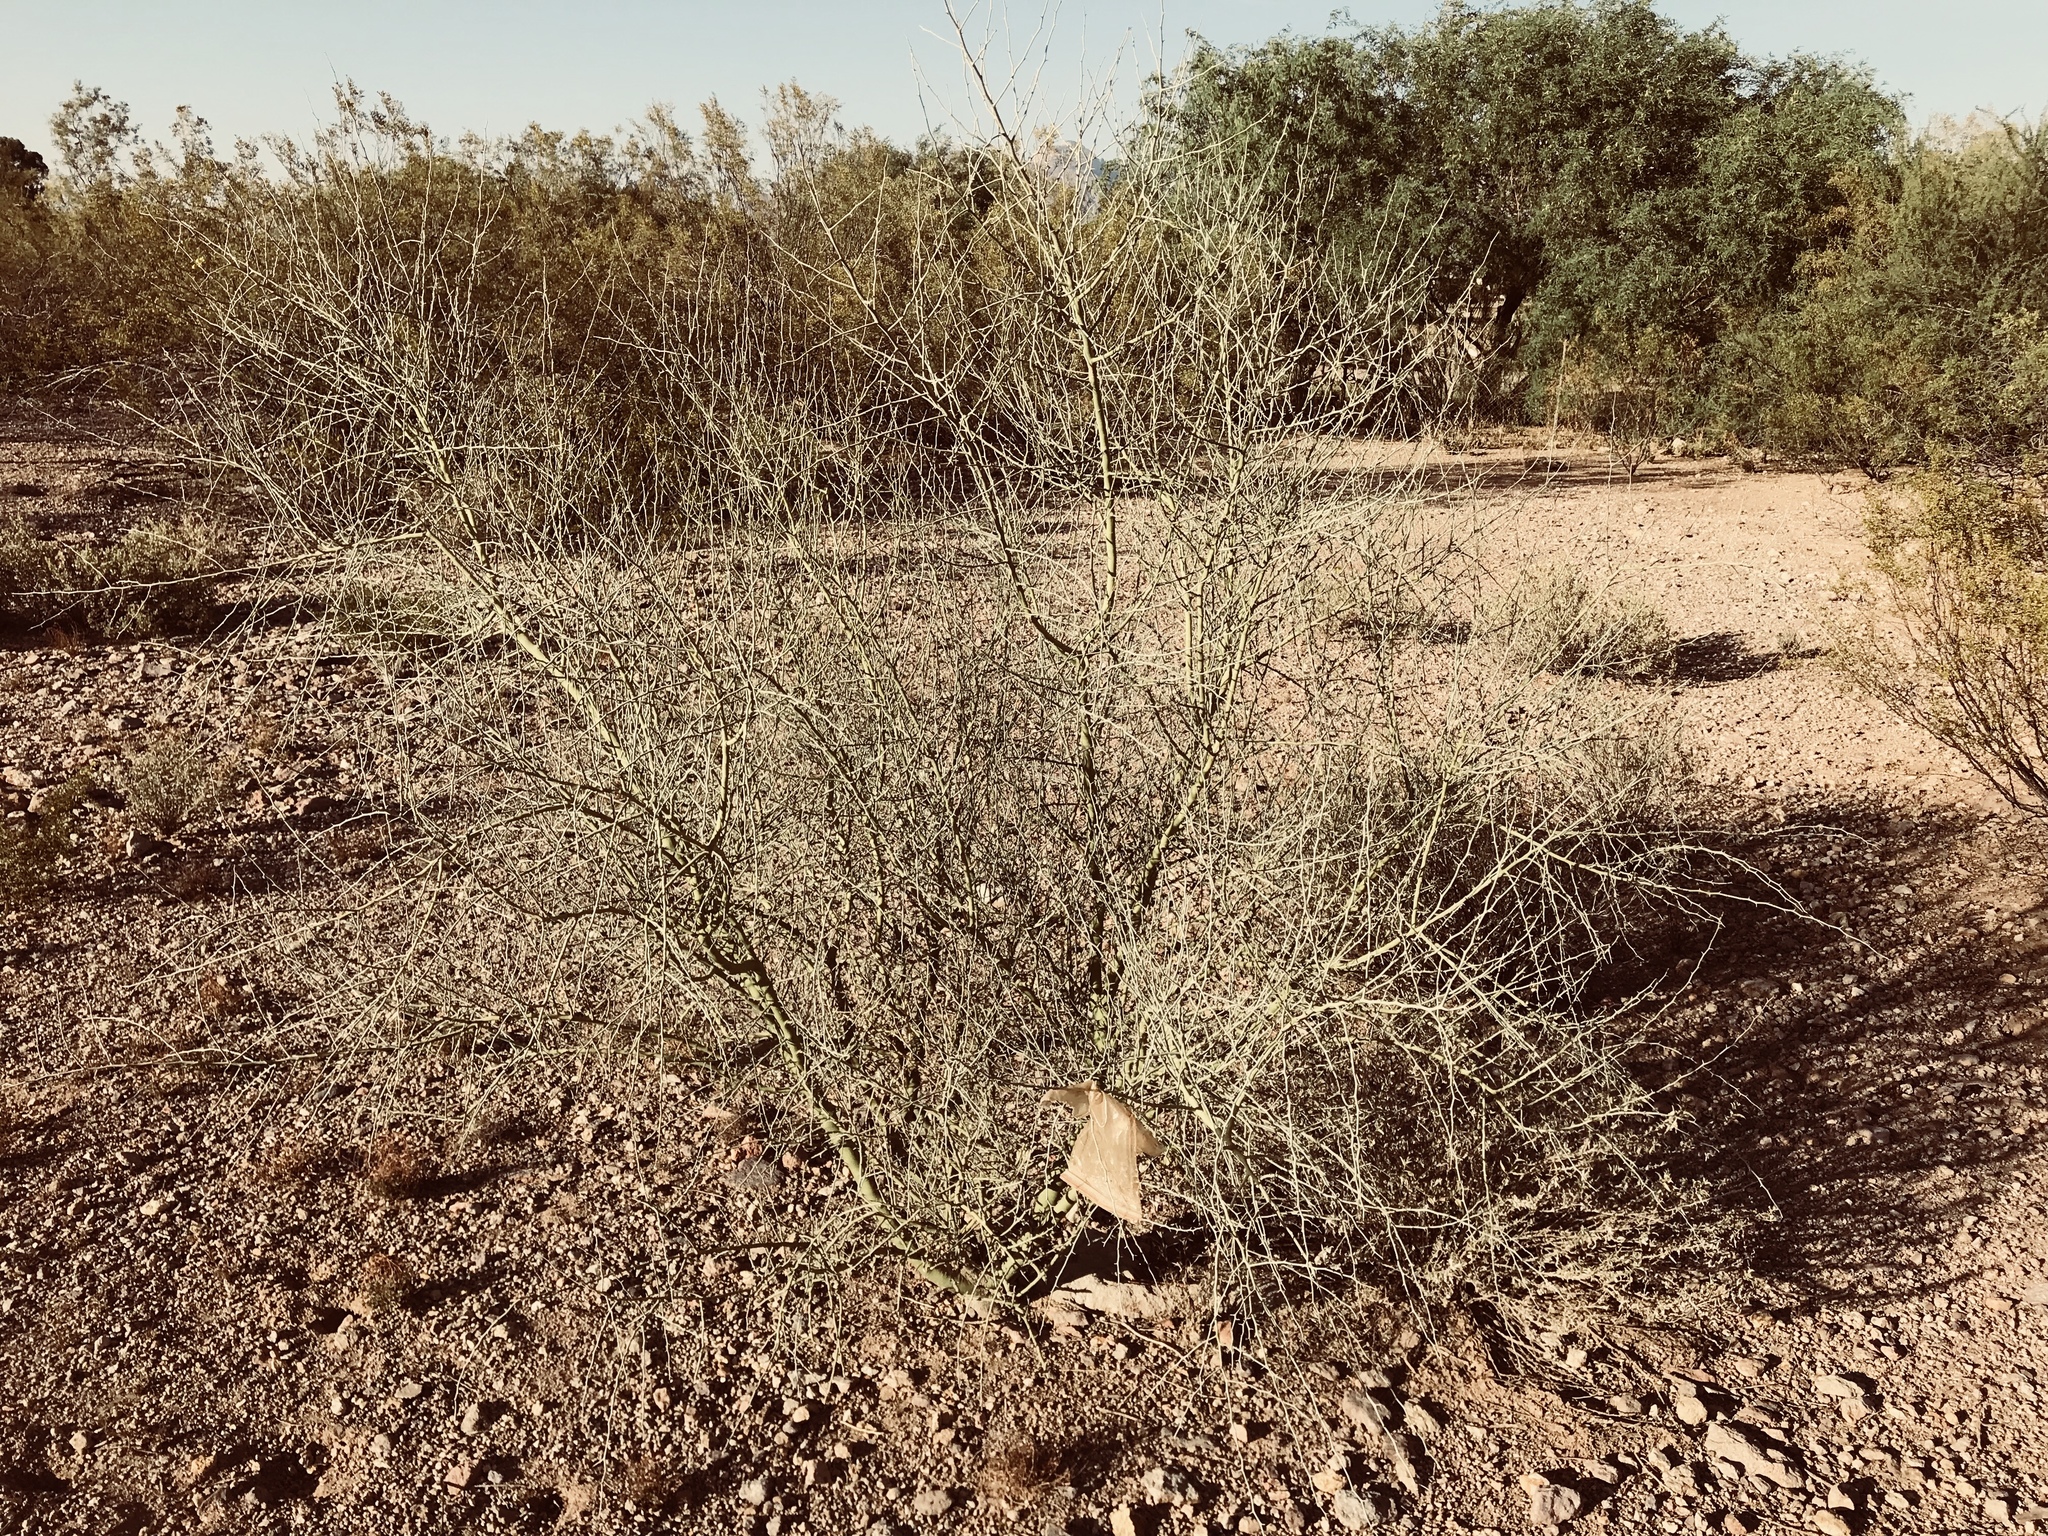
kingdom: Plantae
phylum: Tracheophyta
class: Magnoliopsida
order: Fabales
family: Fabaceae
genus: Parkinsonia
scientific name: Parkinsonia florida
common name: Blue paloverde
